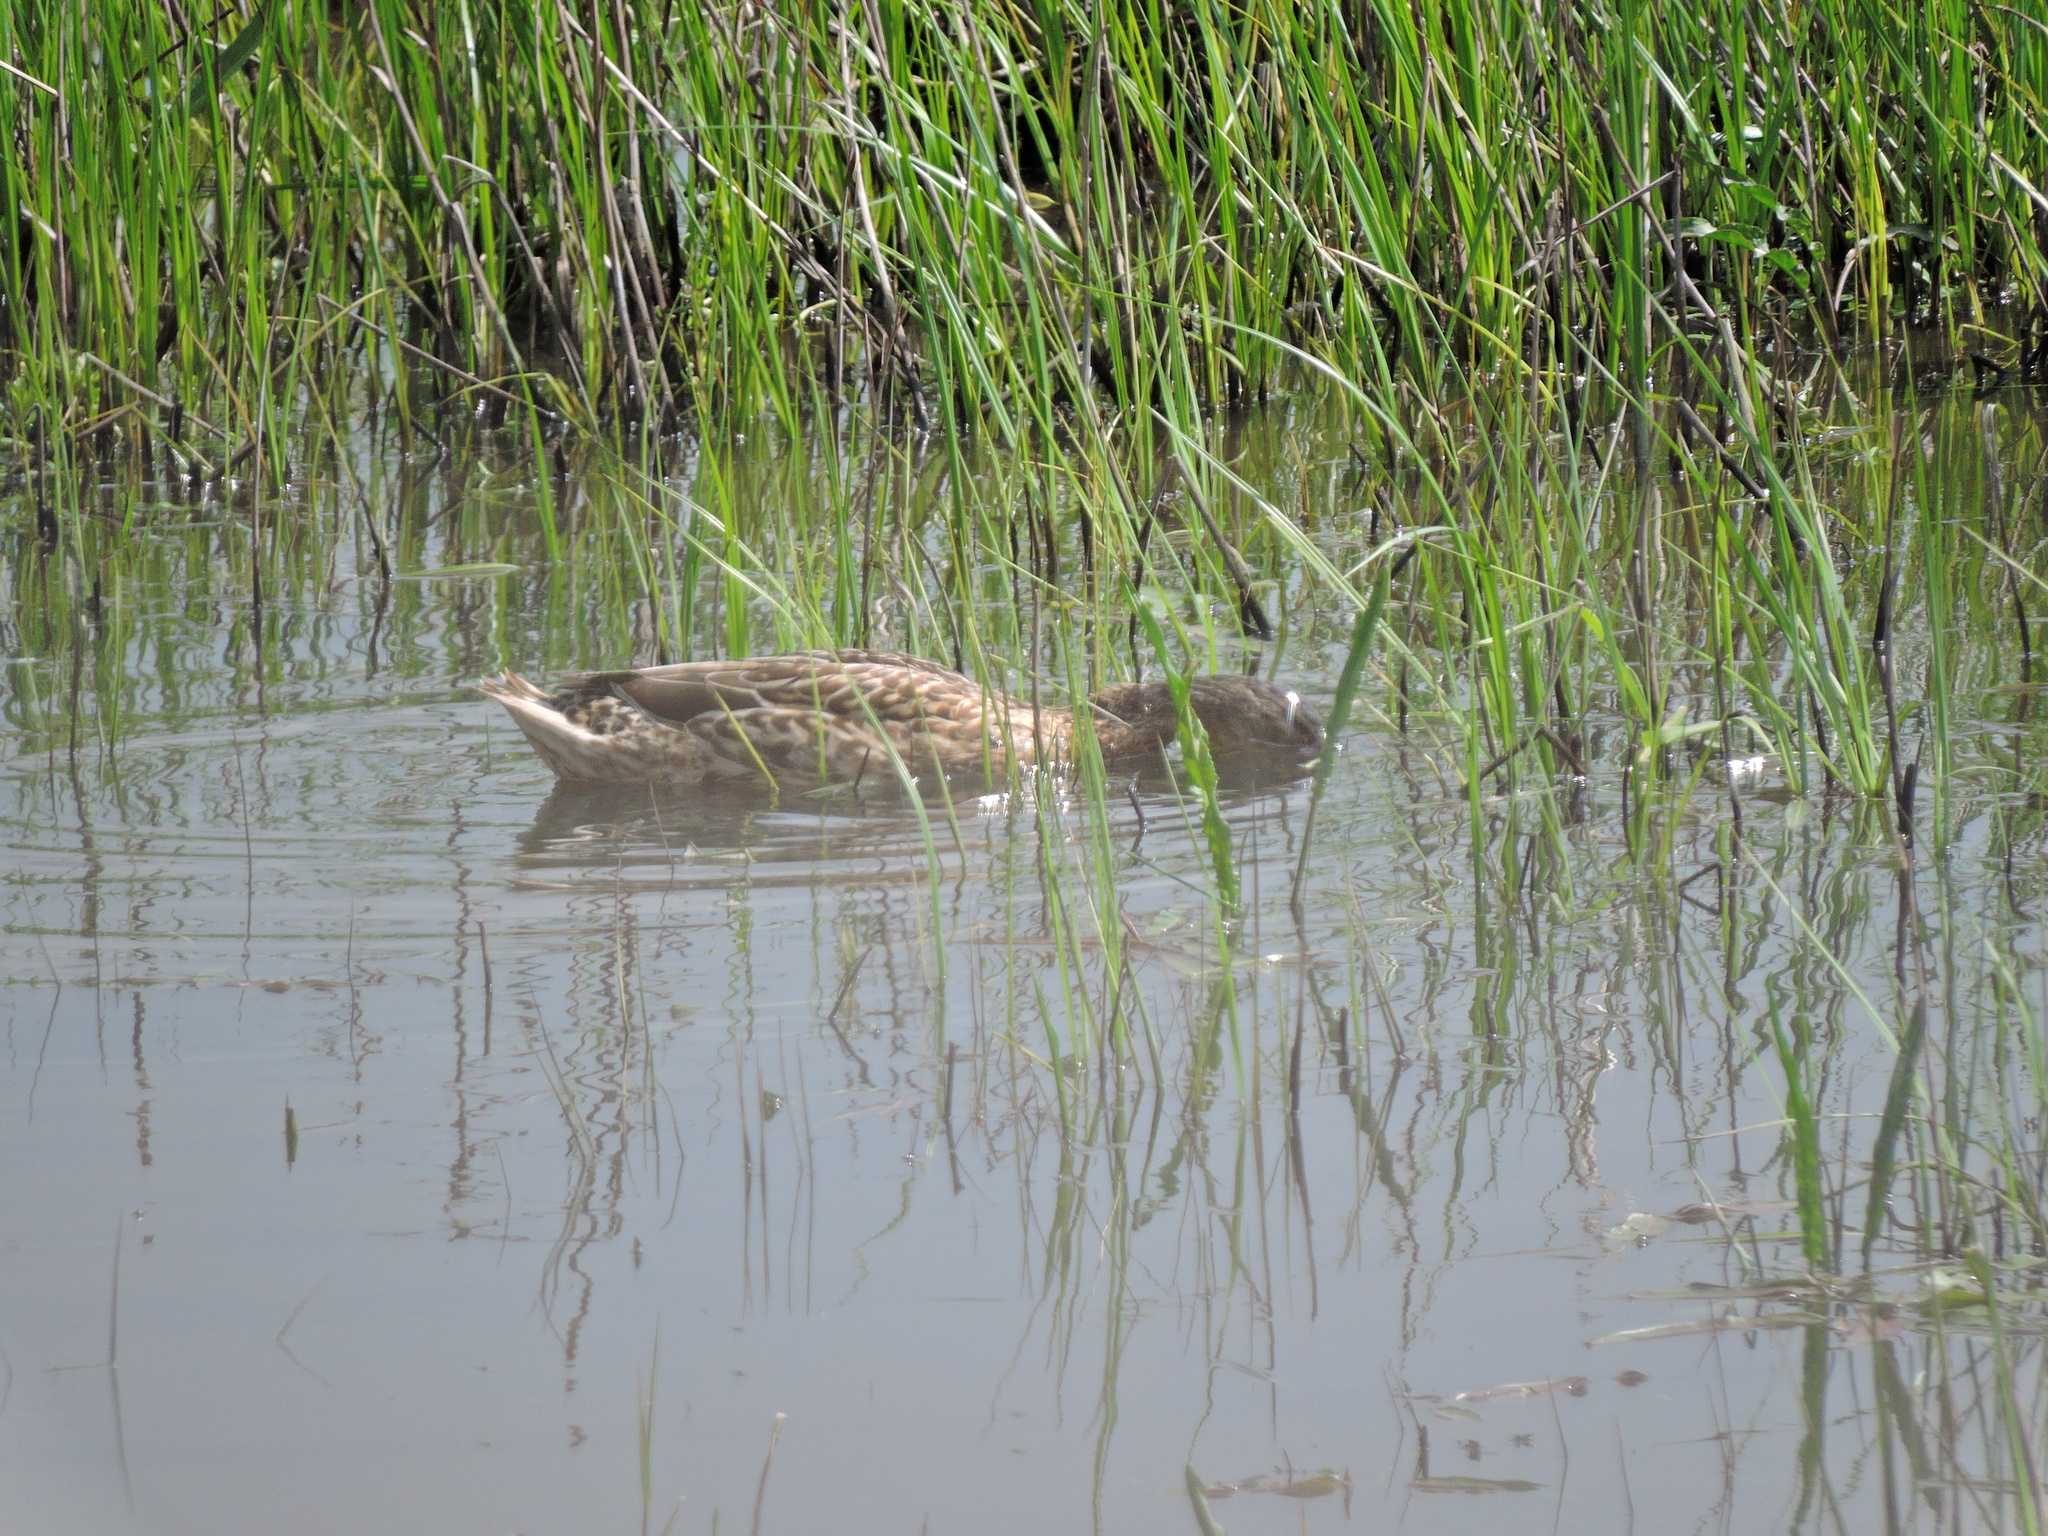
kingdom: Animalia
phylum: Chordata
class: Aves
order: Anseriformes
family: Anatidae
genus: Mareca
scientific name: Mareca strepera
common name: Gadwall
